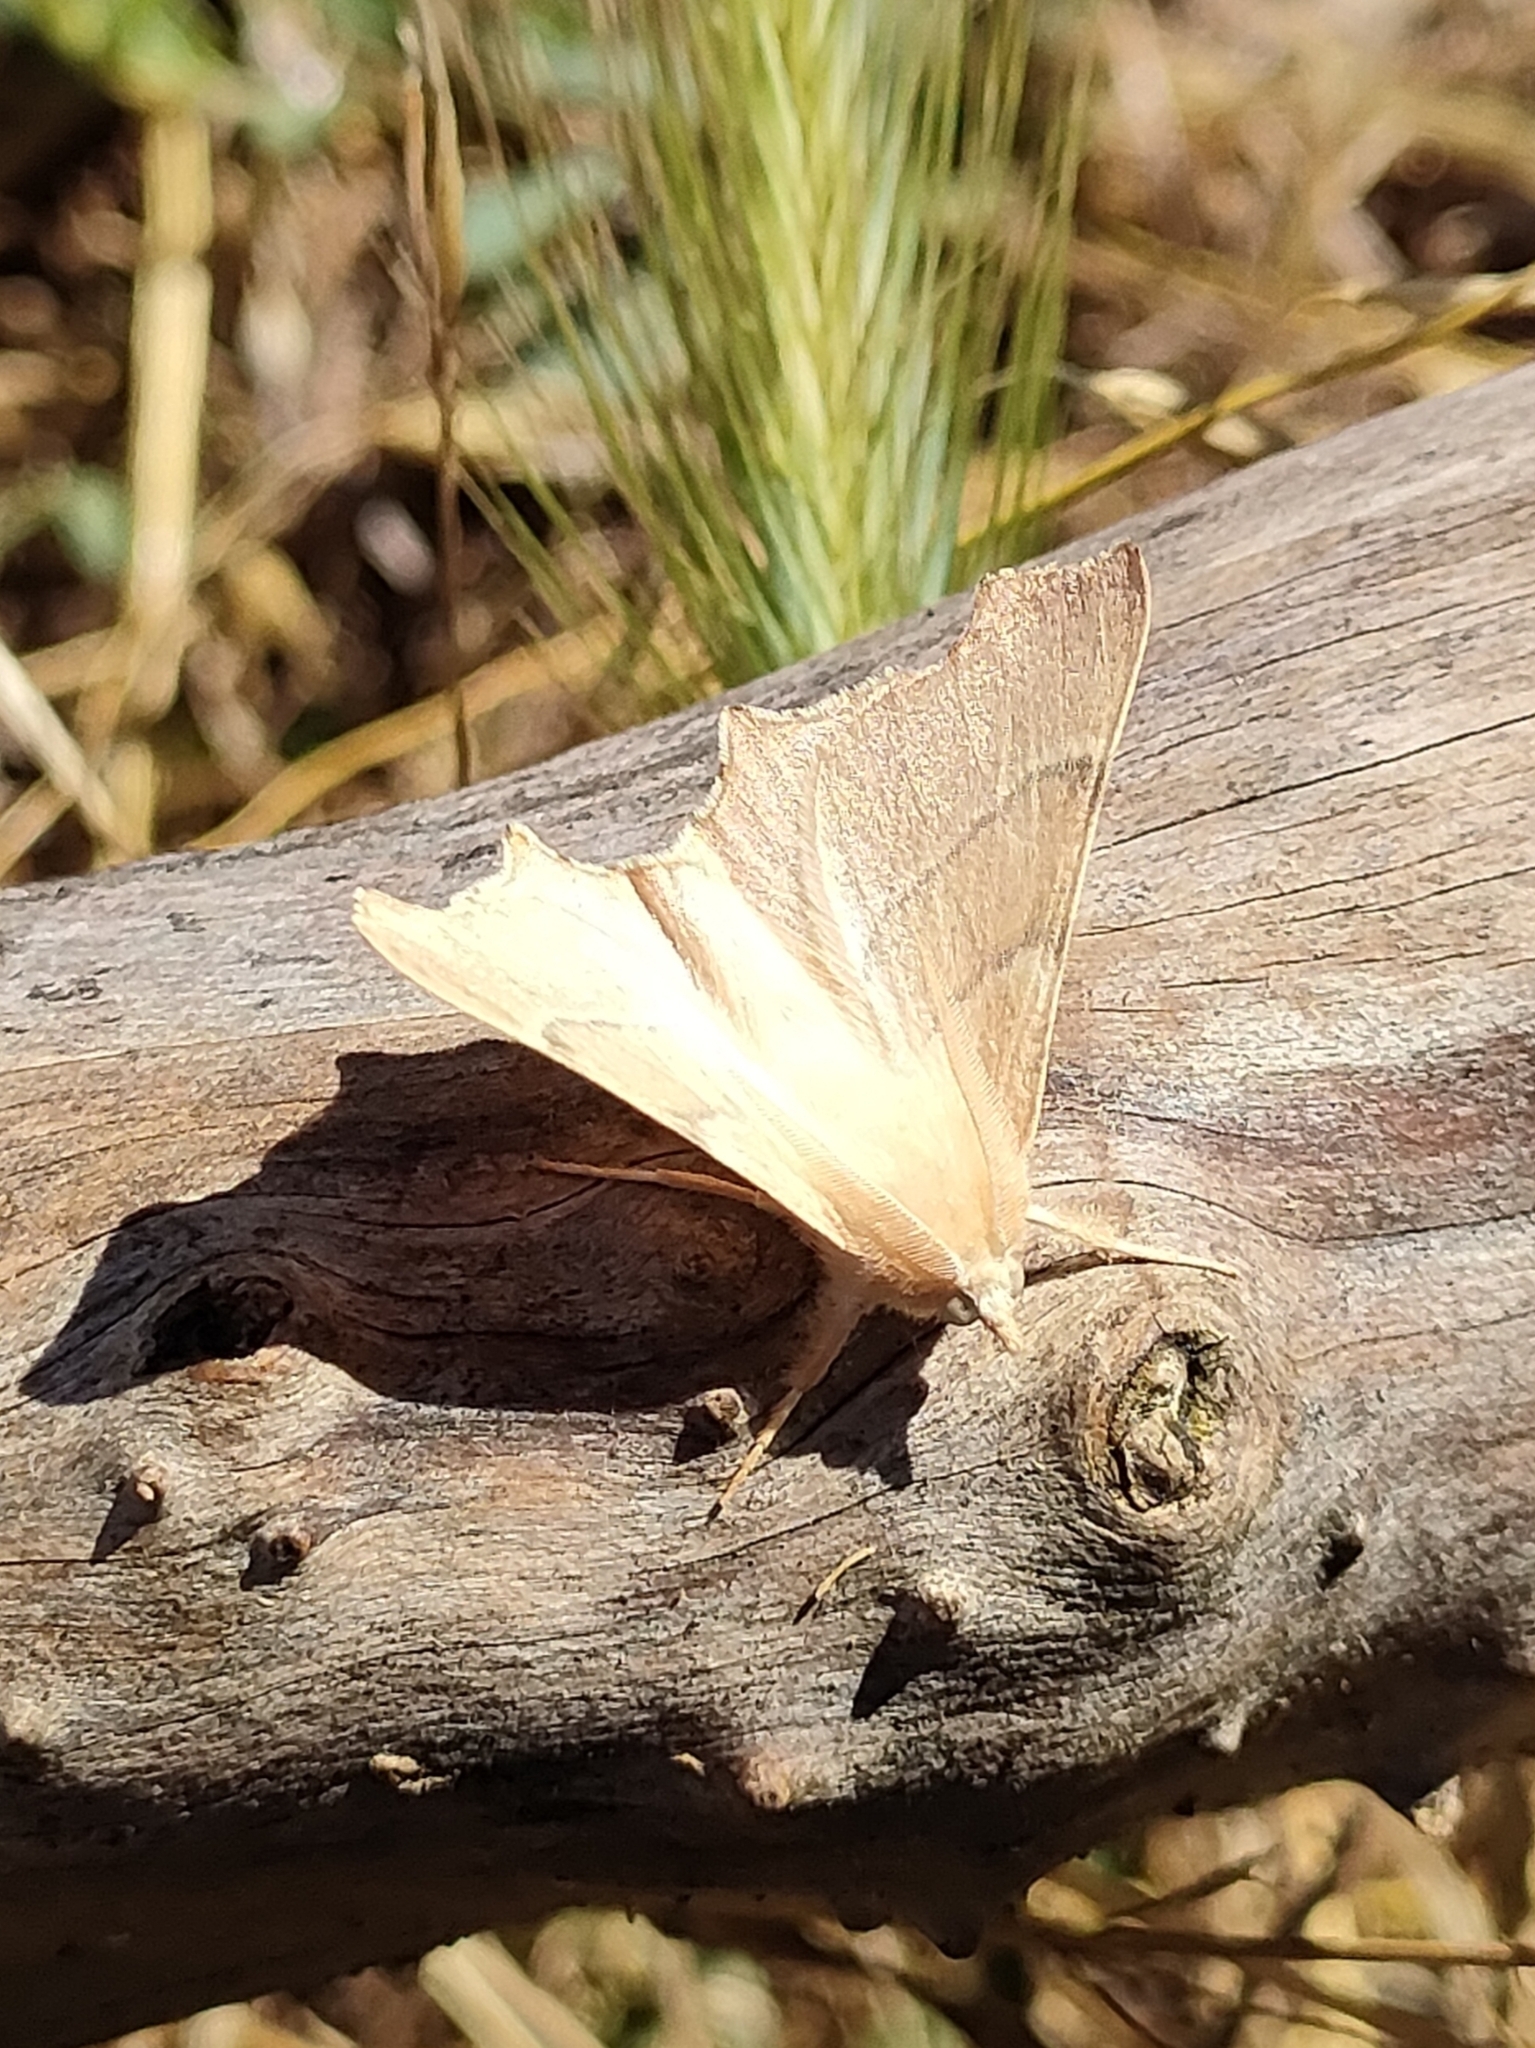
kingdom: Animalia
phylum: Arthropoda
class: Insecta
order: Lepidoptera
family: Geometridae
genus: Ennomos
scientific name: Ennomos quercaria
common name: Clouded august thorn
